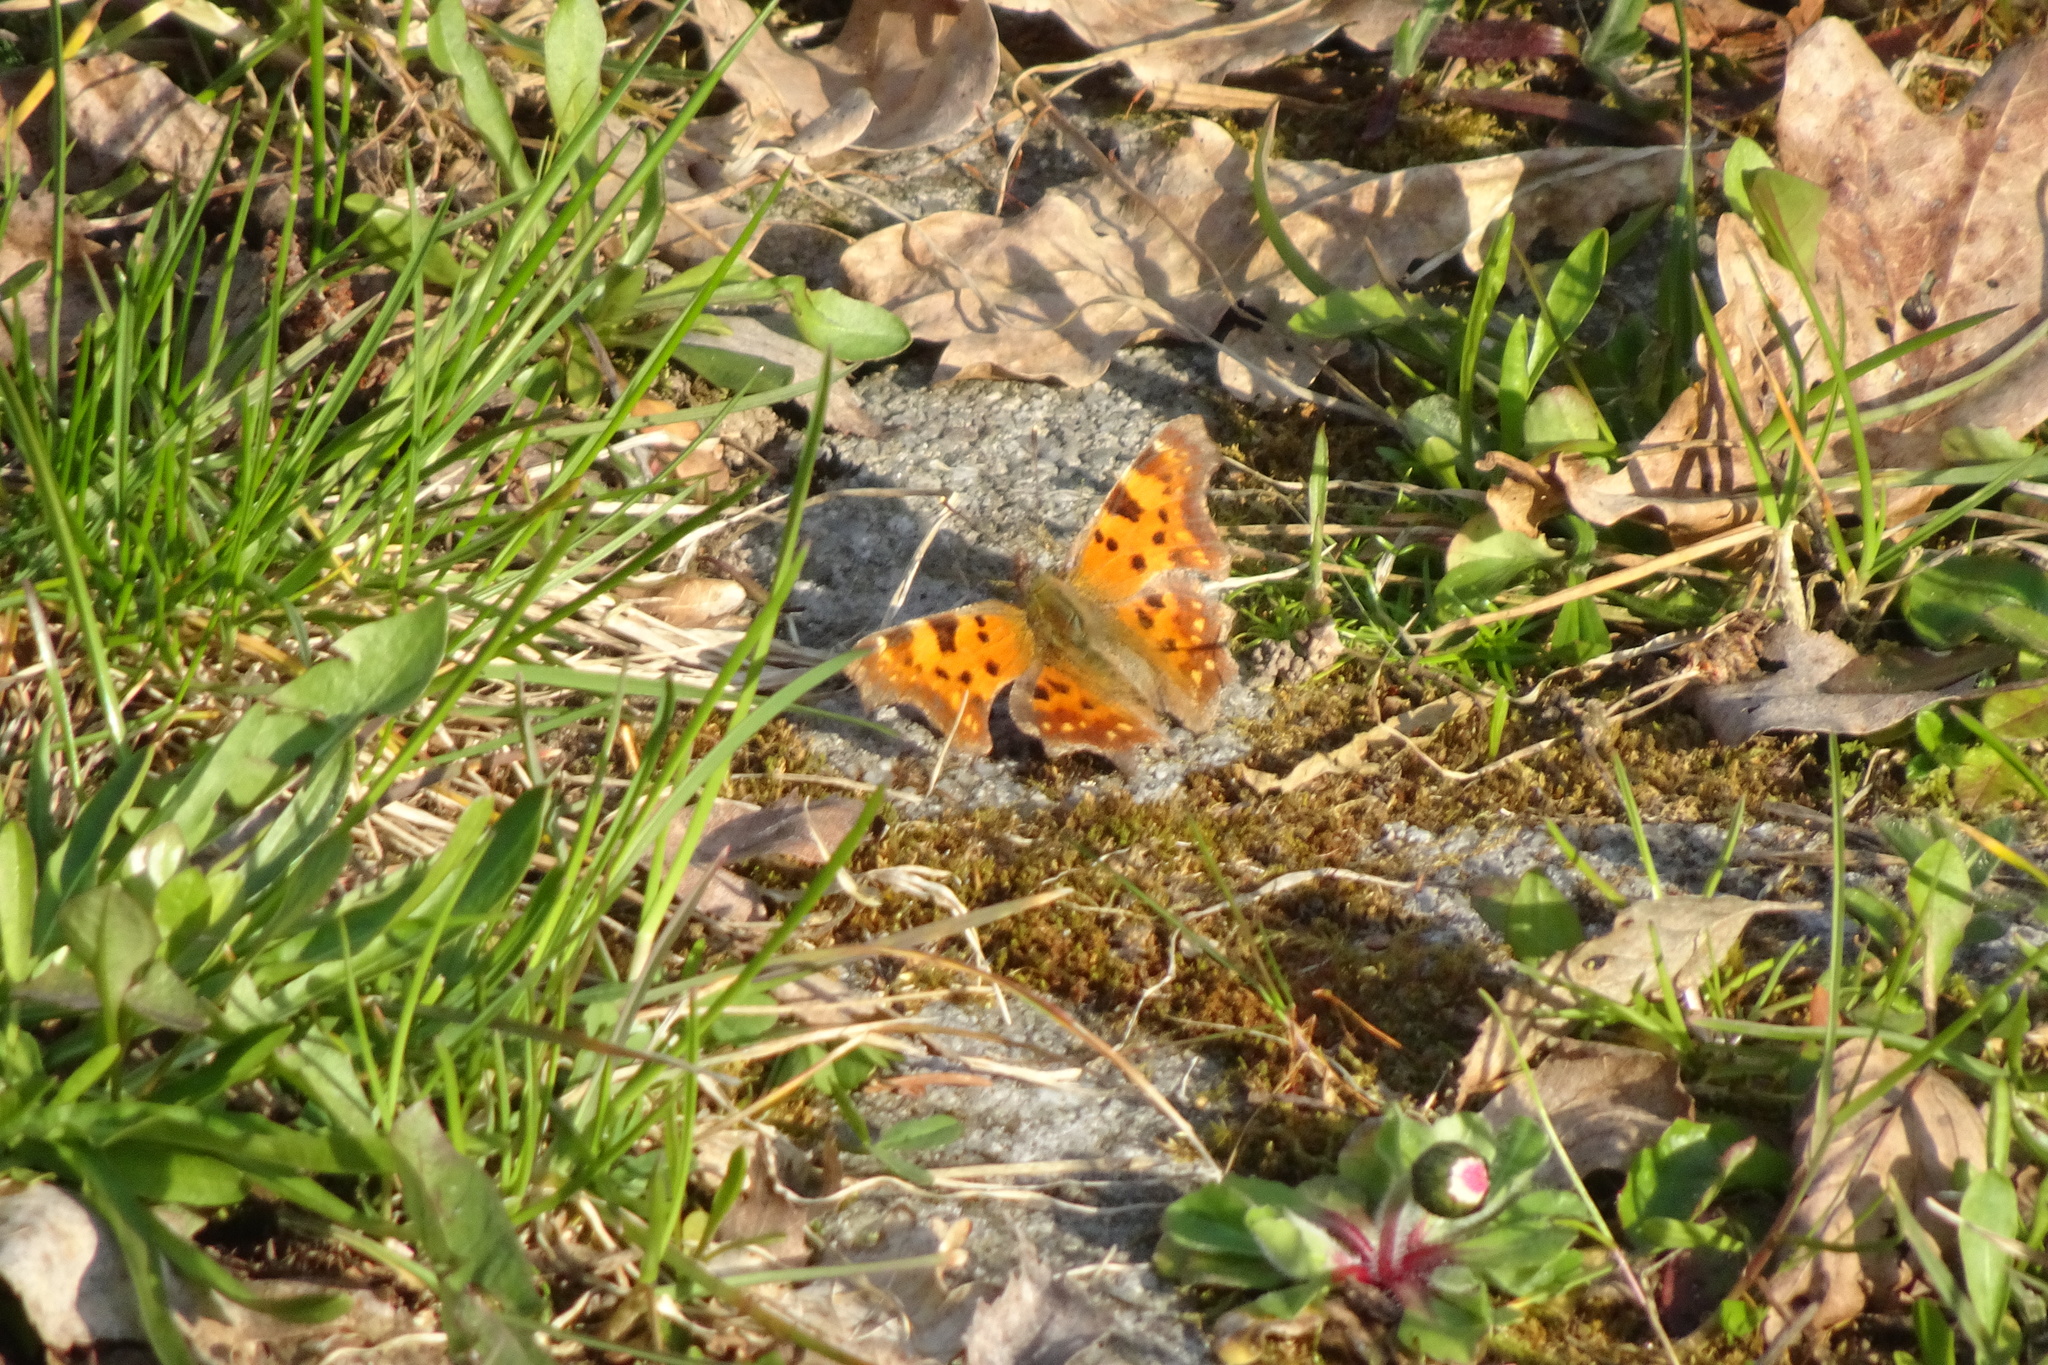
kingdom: Animalia
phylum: Arthropoda
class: Insecta
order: Lepidoptera
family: Nymphalidae
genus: Polygonia
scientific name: Polygonia c-album
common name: Comma
